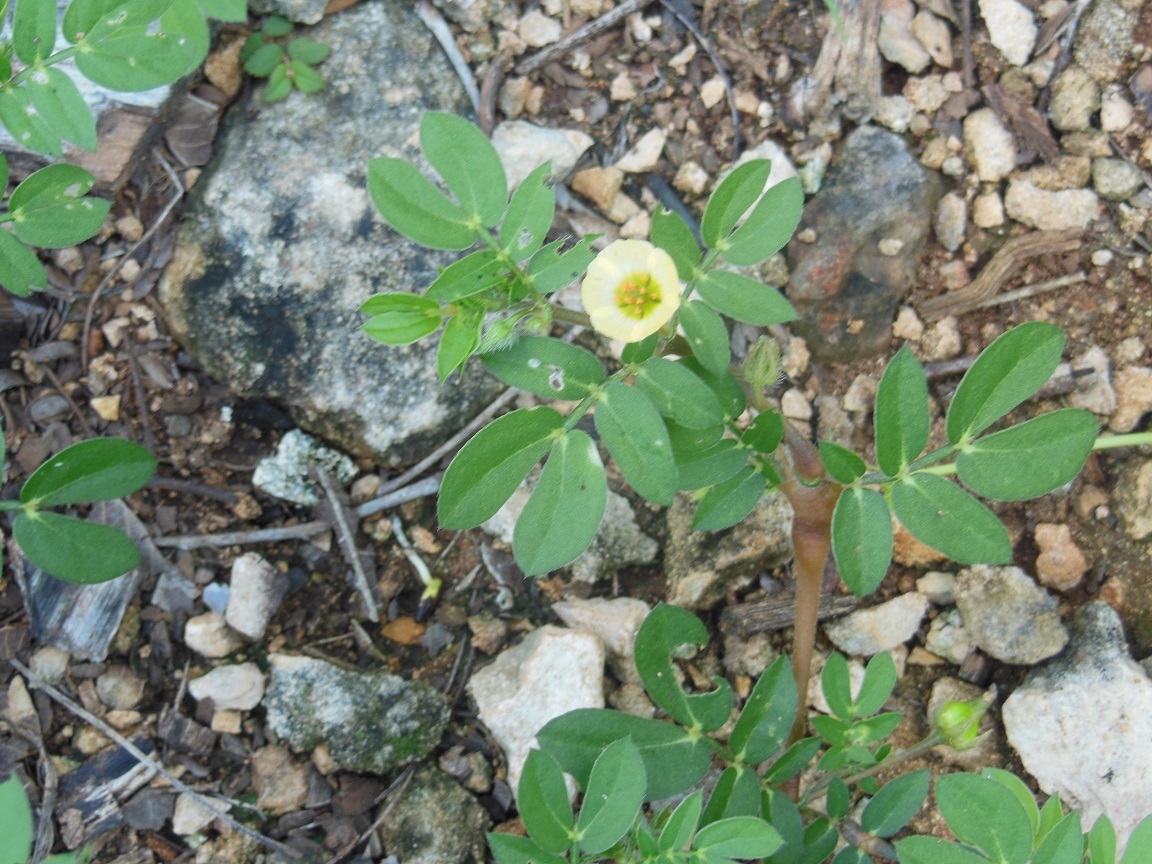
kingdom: Plantae
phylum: Tracheophyta
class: Magnoliopsida
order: Zygophyllales
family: Zygophyllaceae
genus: Kallstroemia
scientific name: Kallstroemia maxima
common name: Big caltropa
